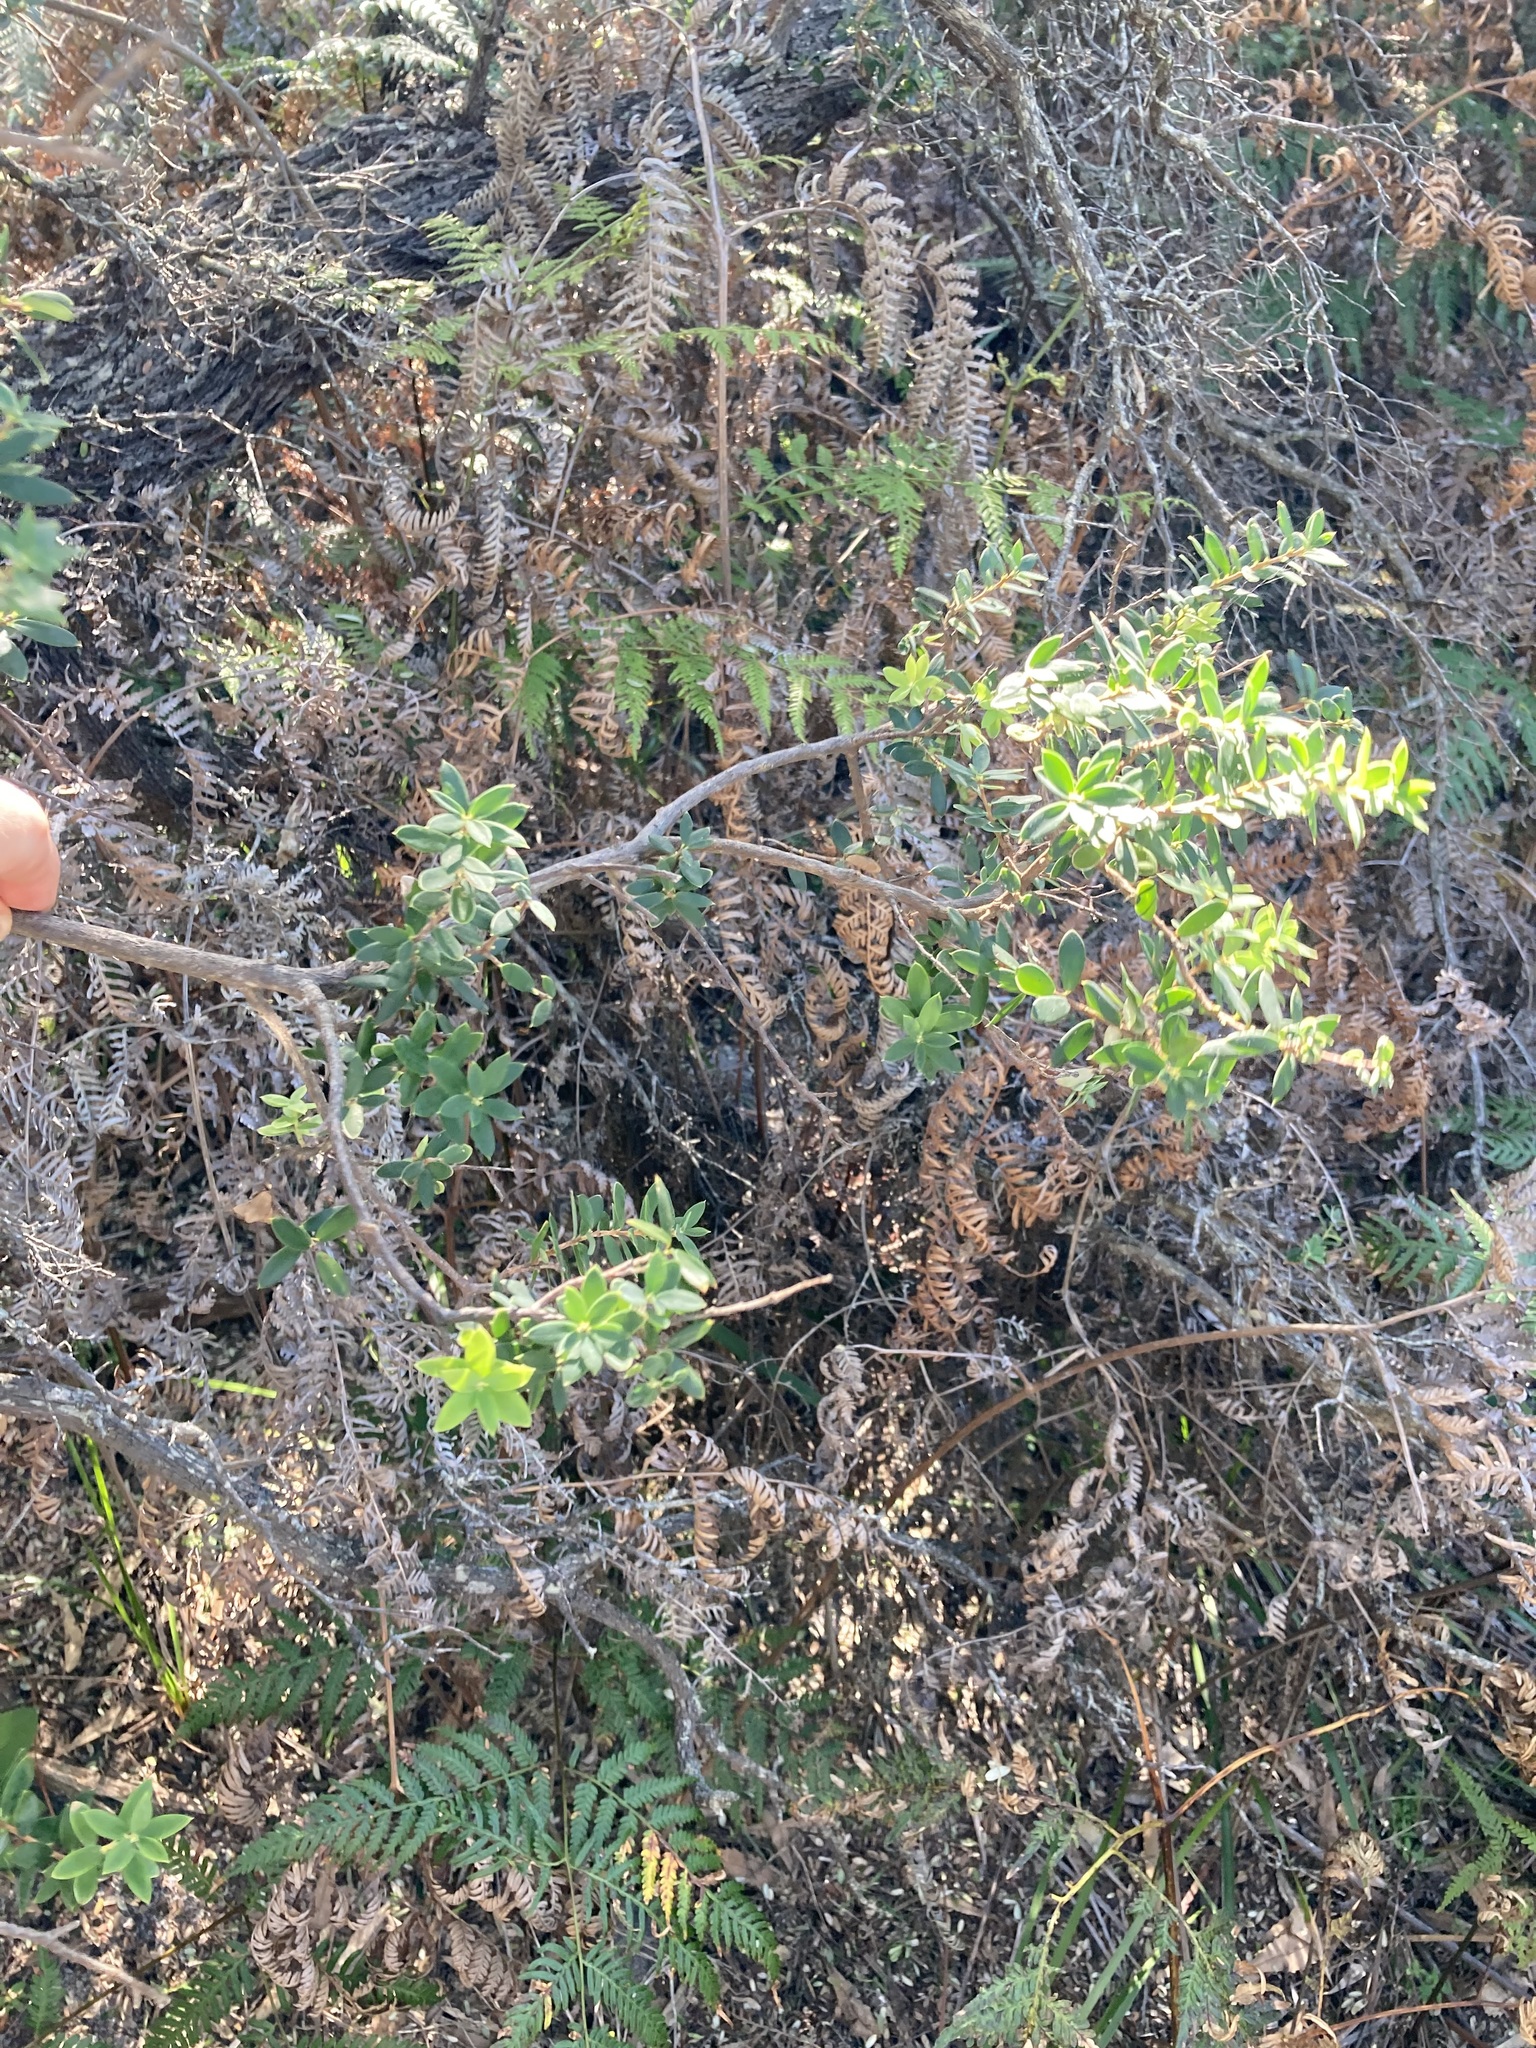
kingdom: Plantae
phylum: Tracheophyta
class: Magnoliopsida
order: Ericales
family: Ericaceae
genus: Monotoca
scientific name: Monotoca elliptica
